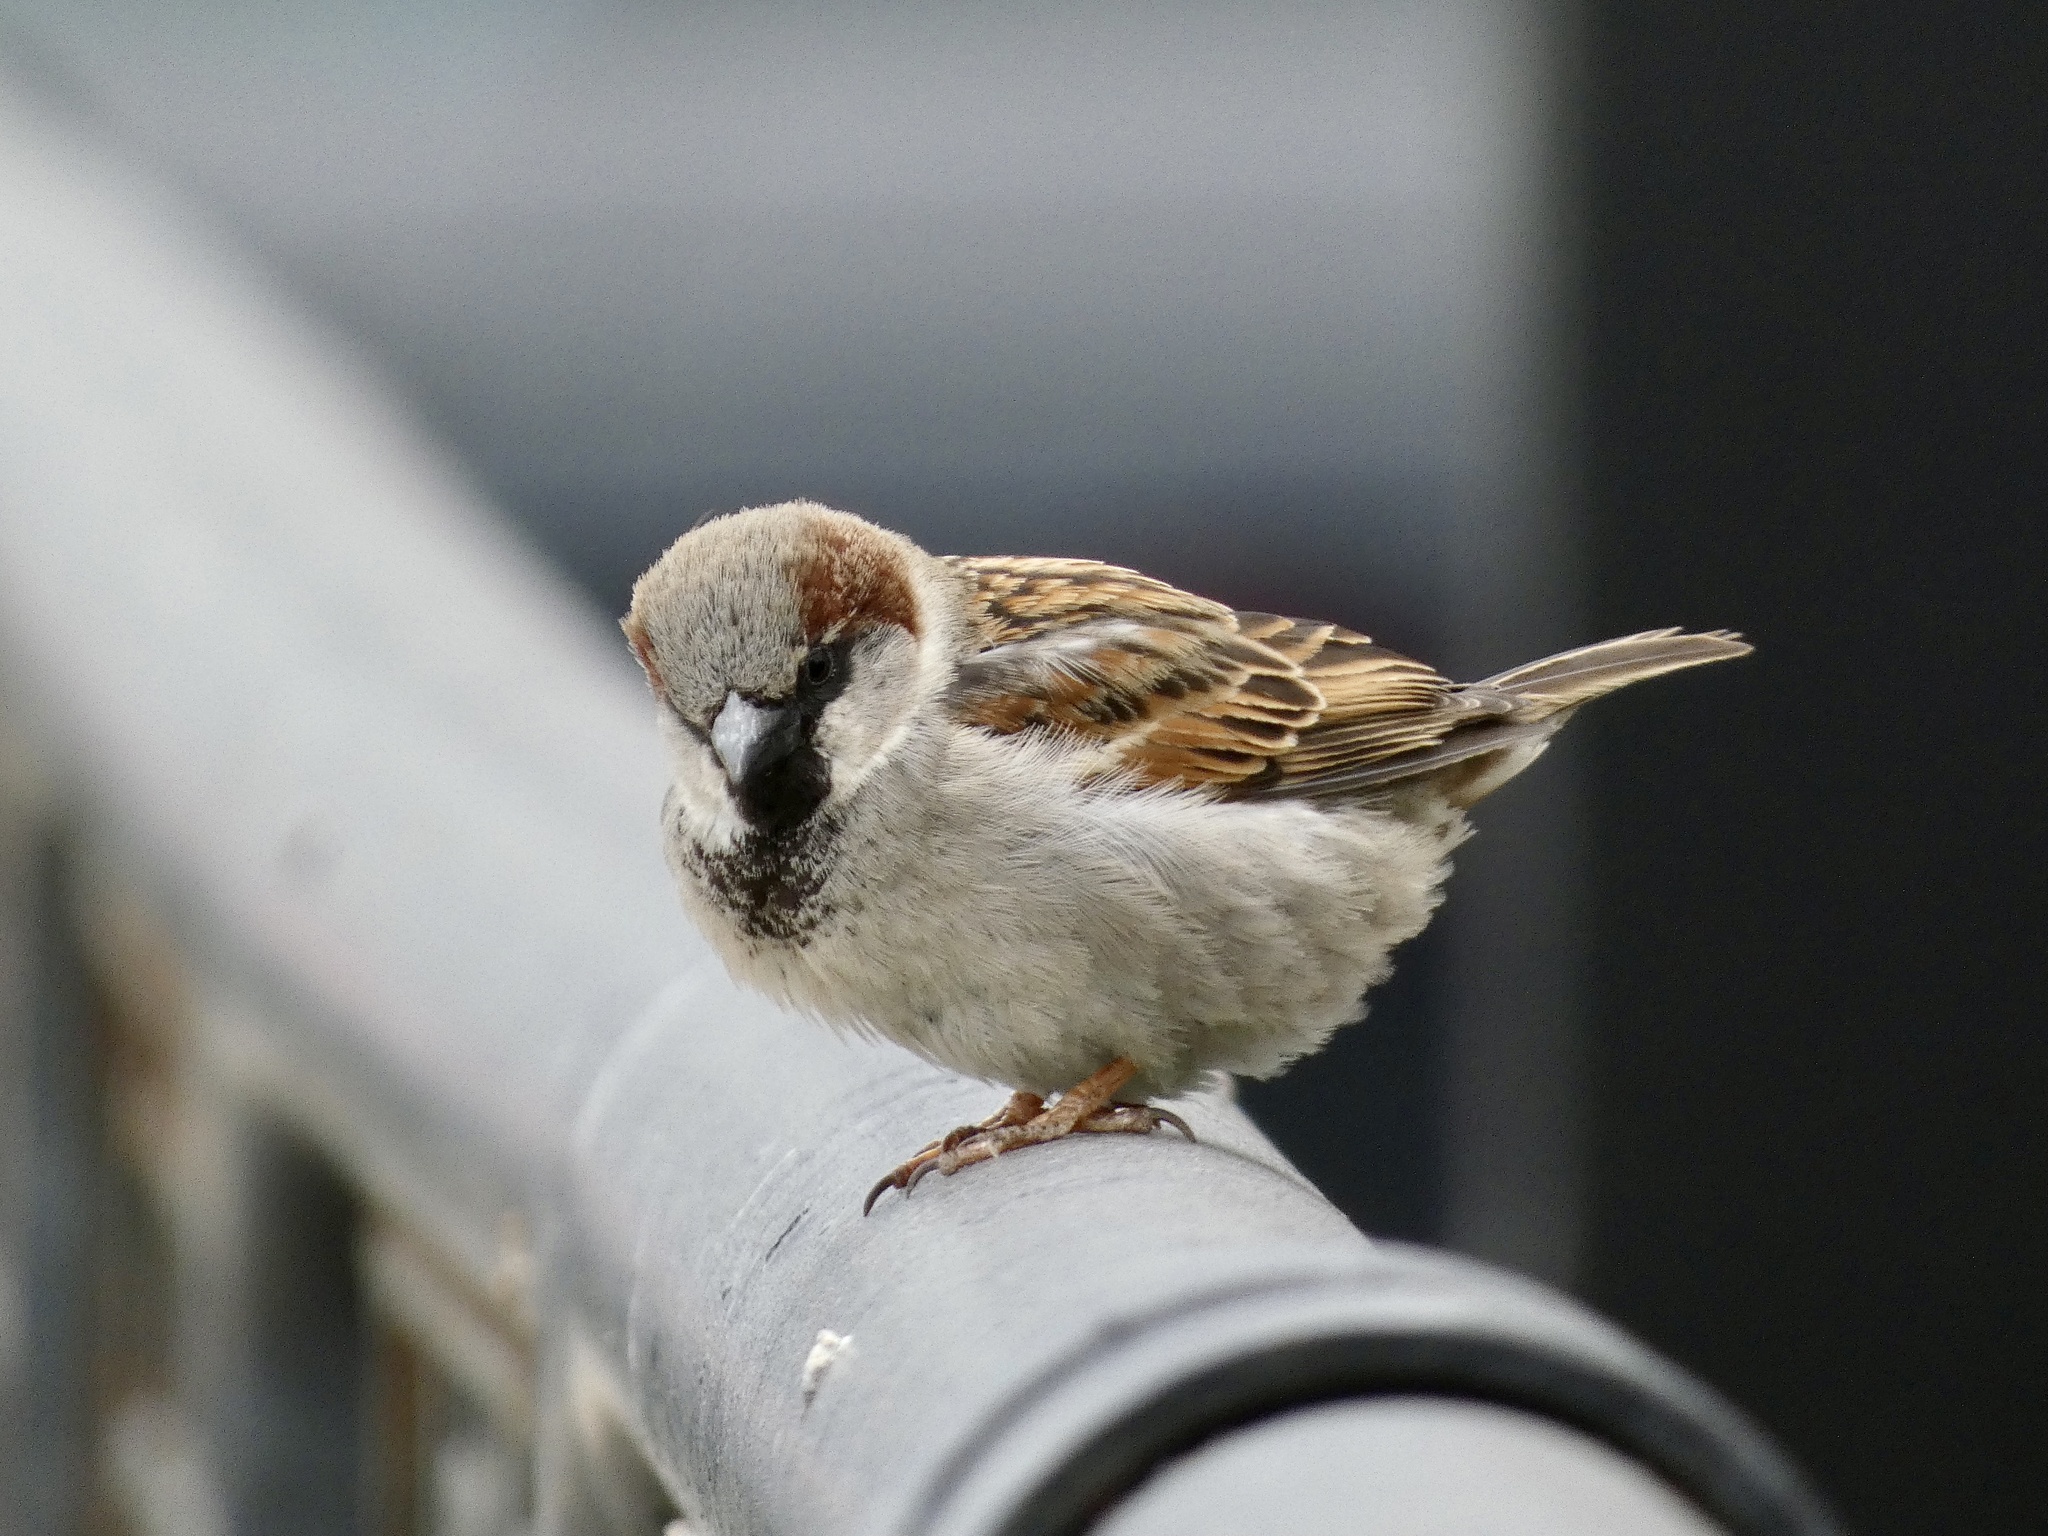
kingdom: Animalia
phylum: Chordata
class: Aves
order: Passeriformes
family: Passeridae
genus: Passer
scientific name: Passer domesticus
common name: House sparrow
